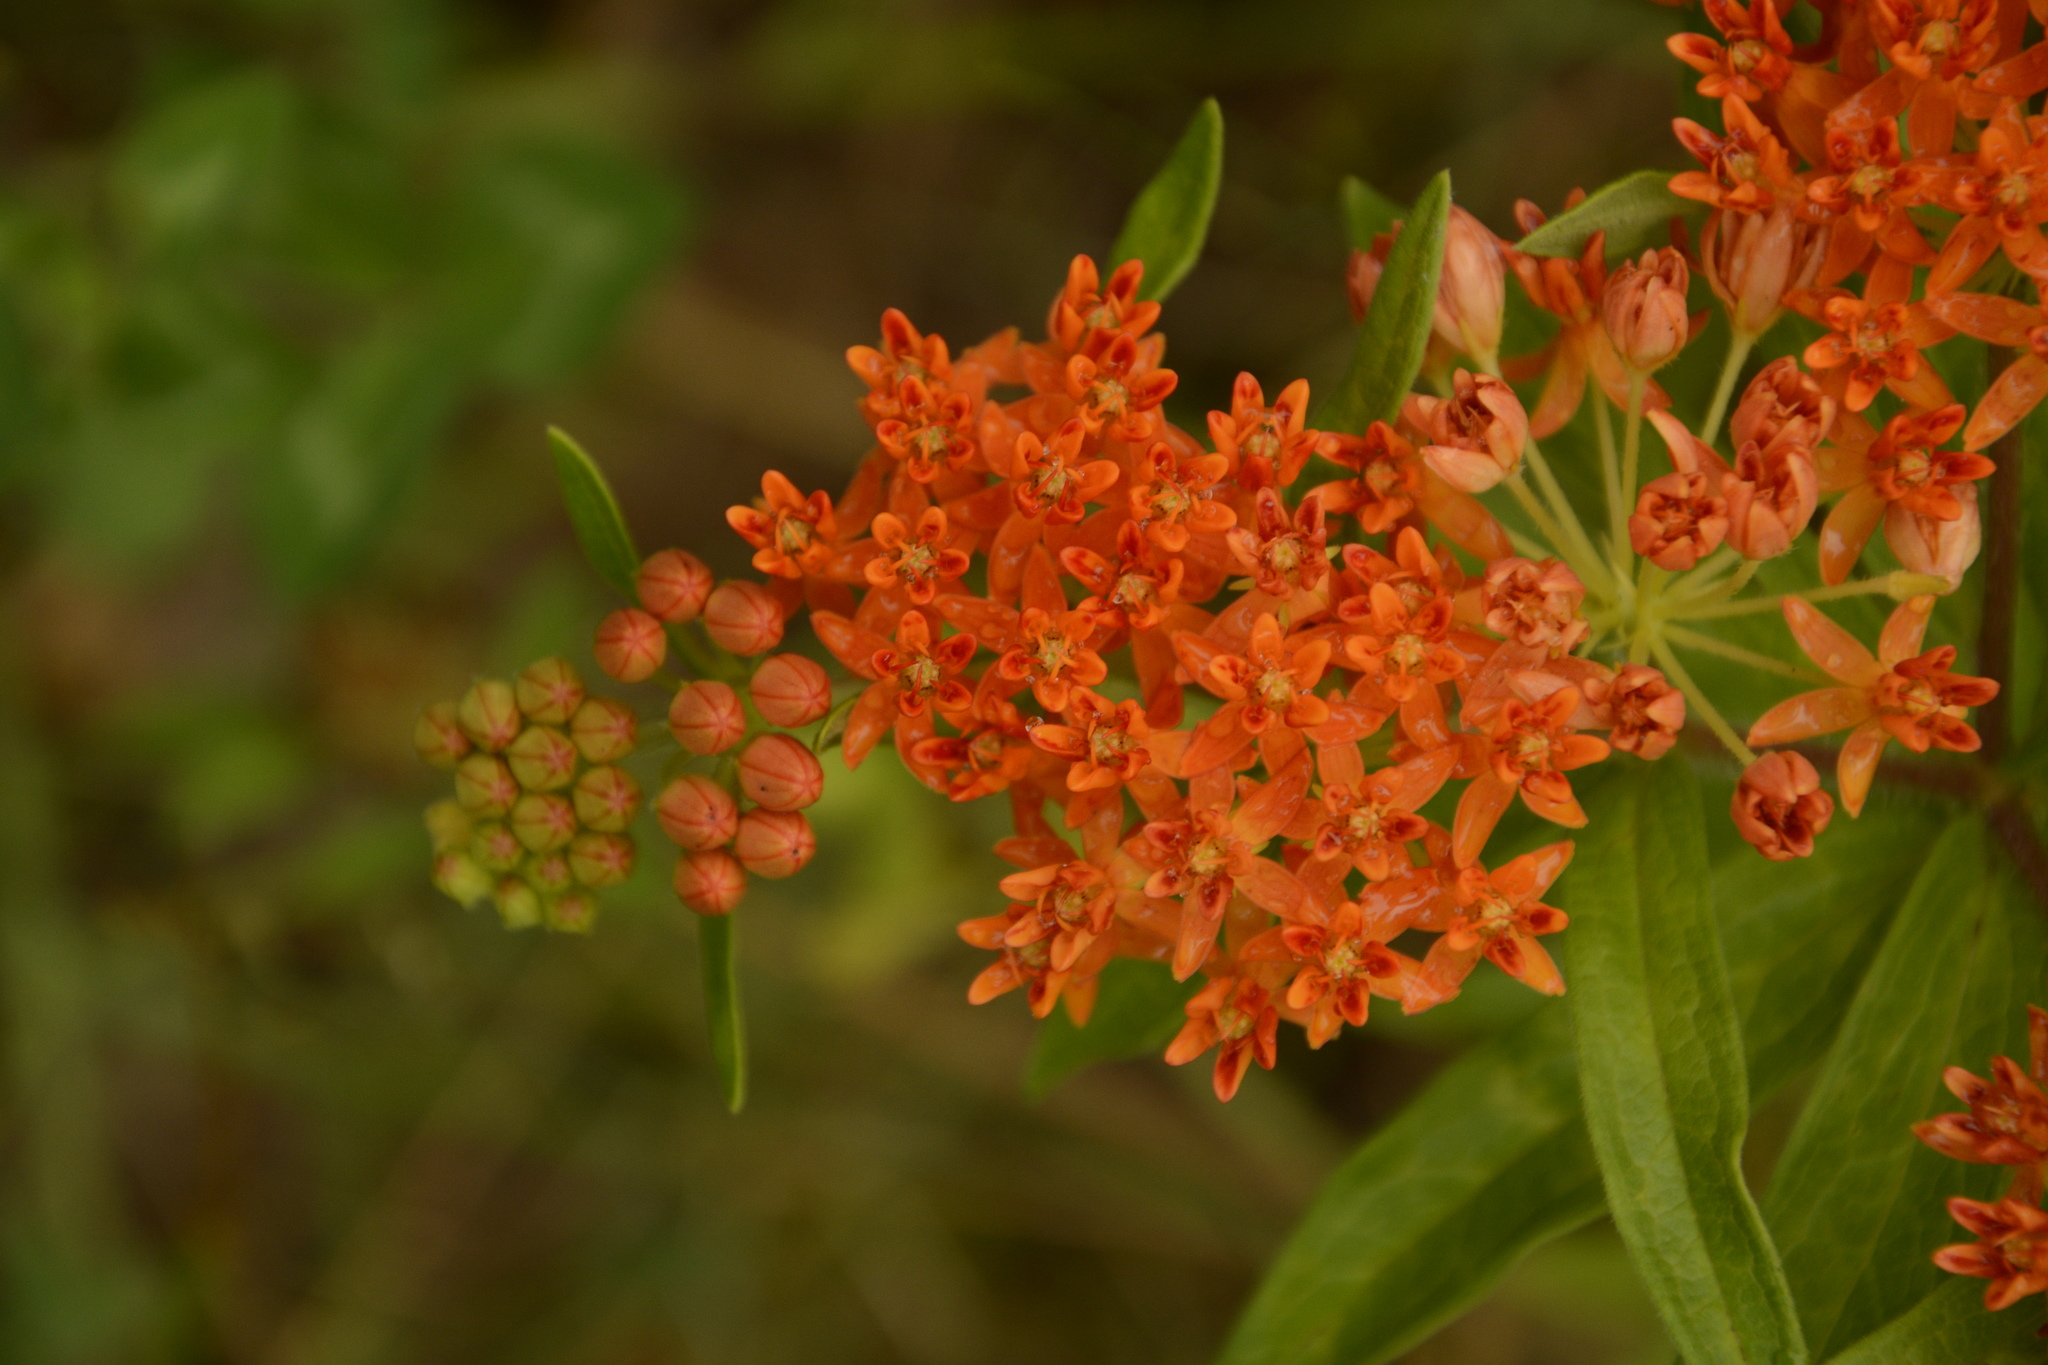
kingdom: Plantae
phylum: Tracheophyta
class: Magnoliopsida
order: Gentianales
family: Apocynaceae
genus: Asclepias
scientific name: Asclepias tuberosa
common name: Butterfly milkweed
